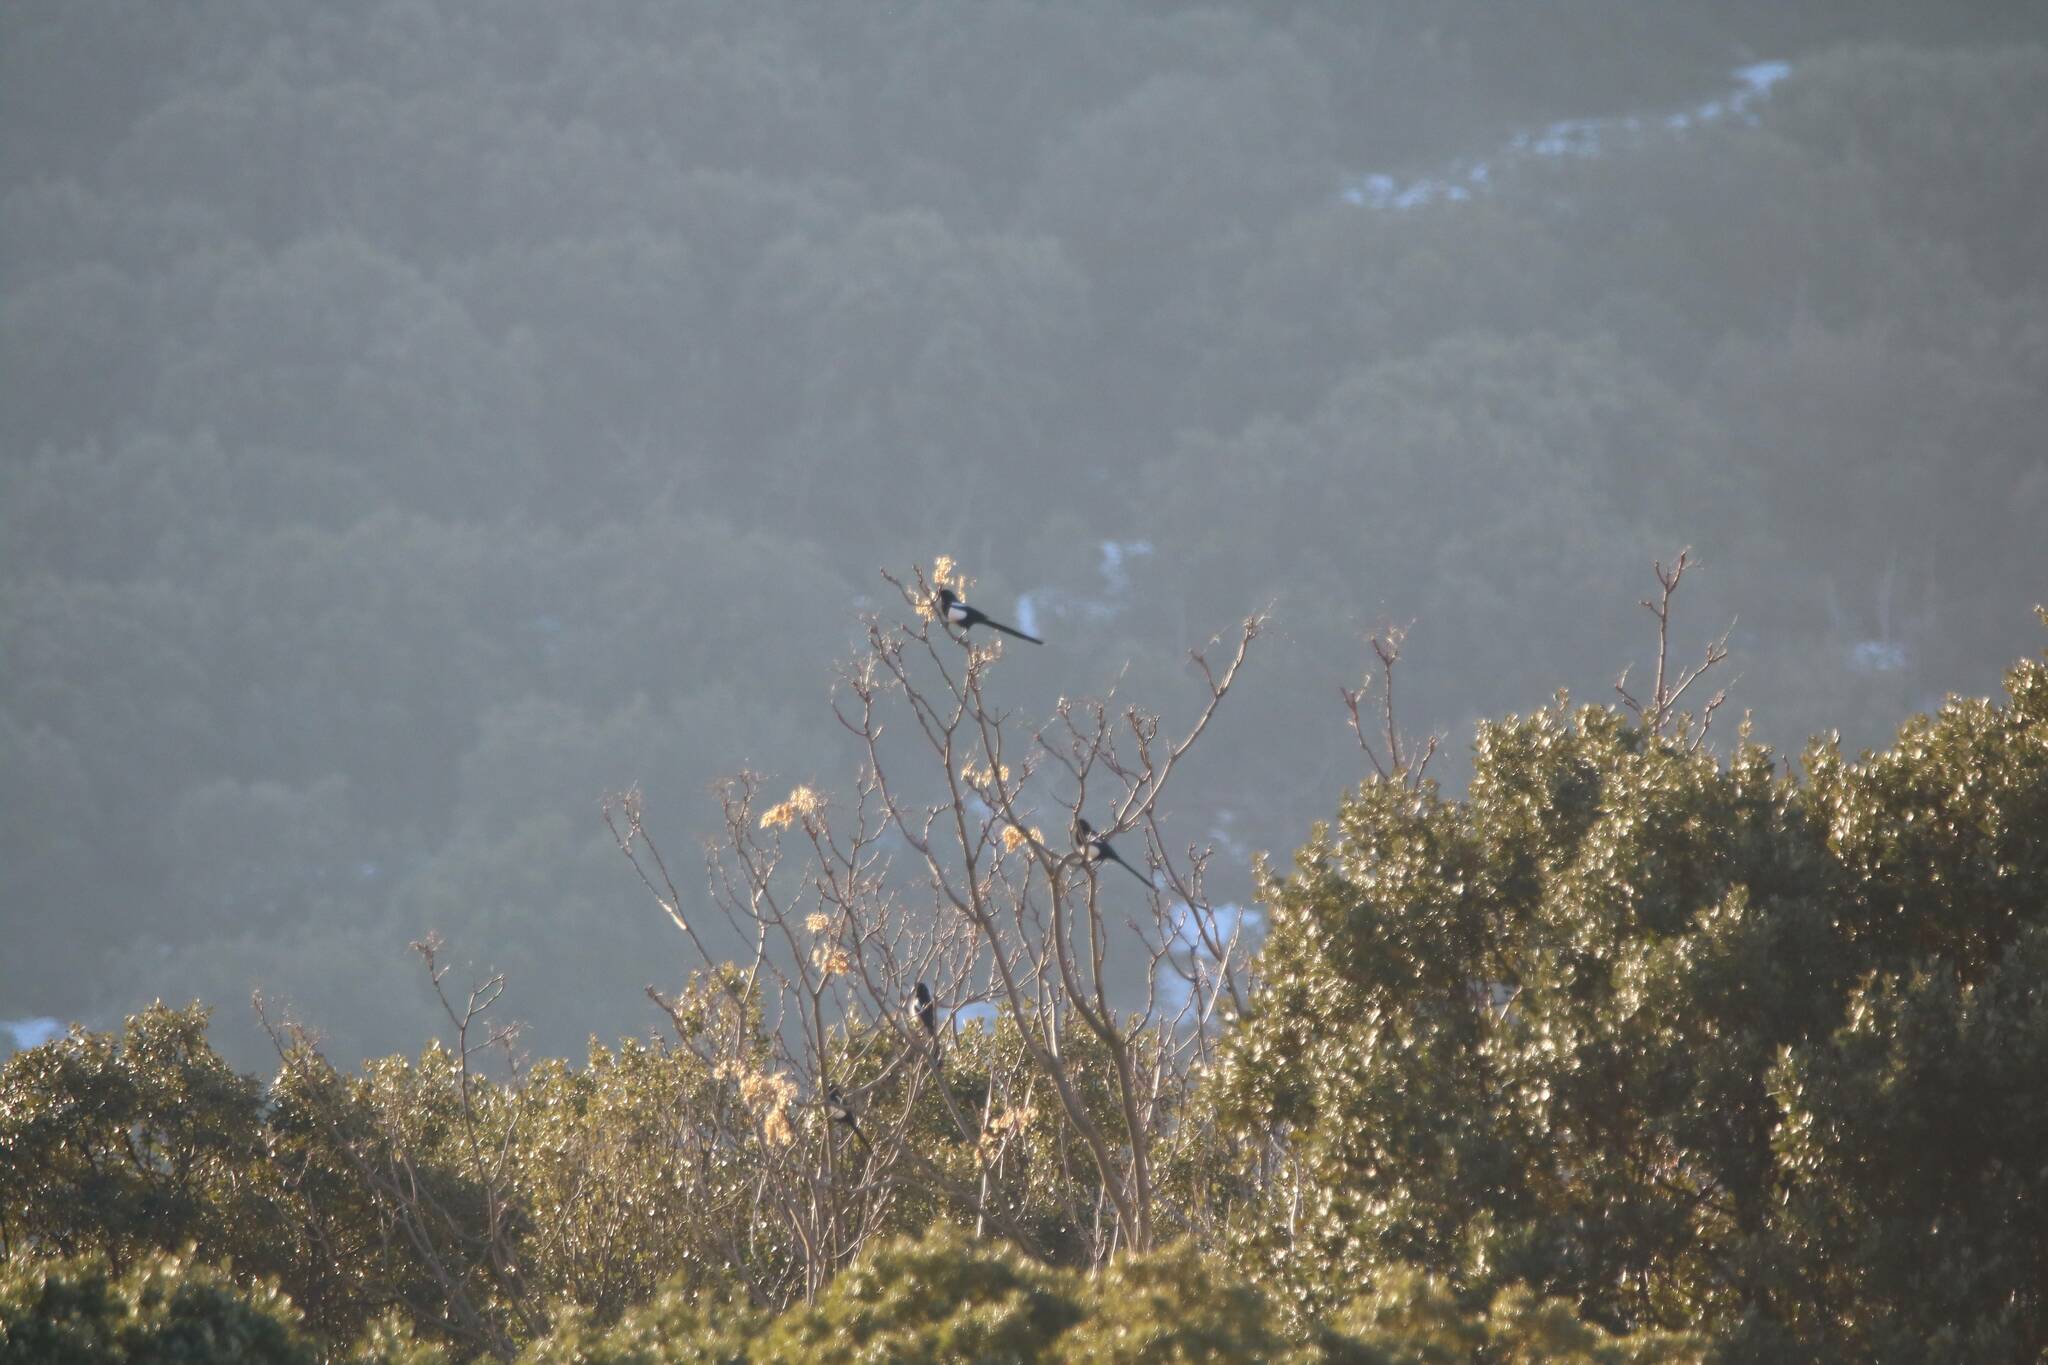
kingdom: Animalia
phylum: Chordata
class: Aves
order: Passeriformes
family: Corvidae
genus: Pica
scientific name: Pica mauritanica
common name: Maghreb magpie
